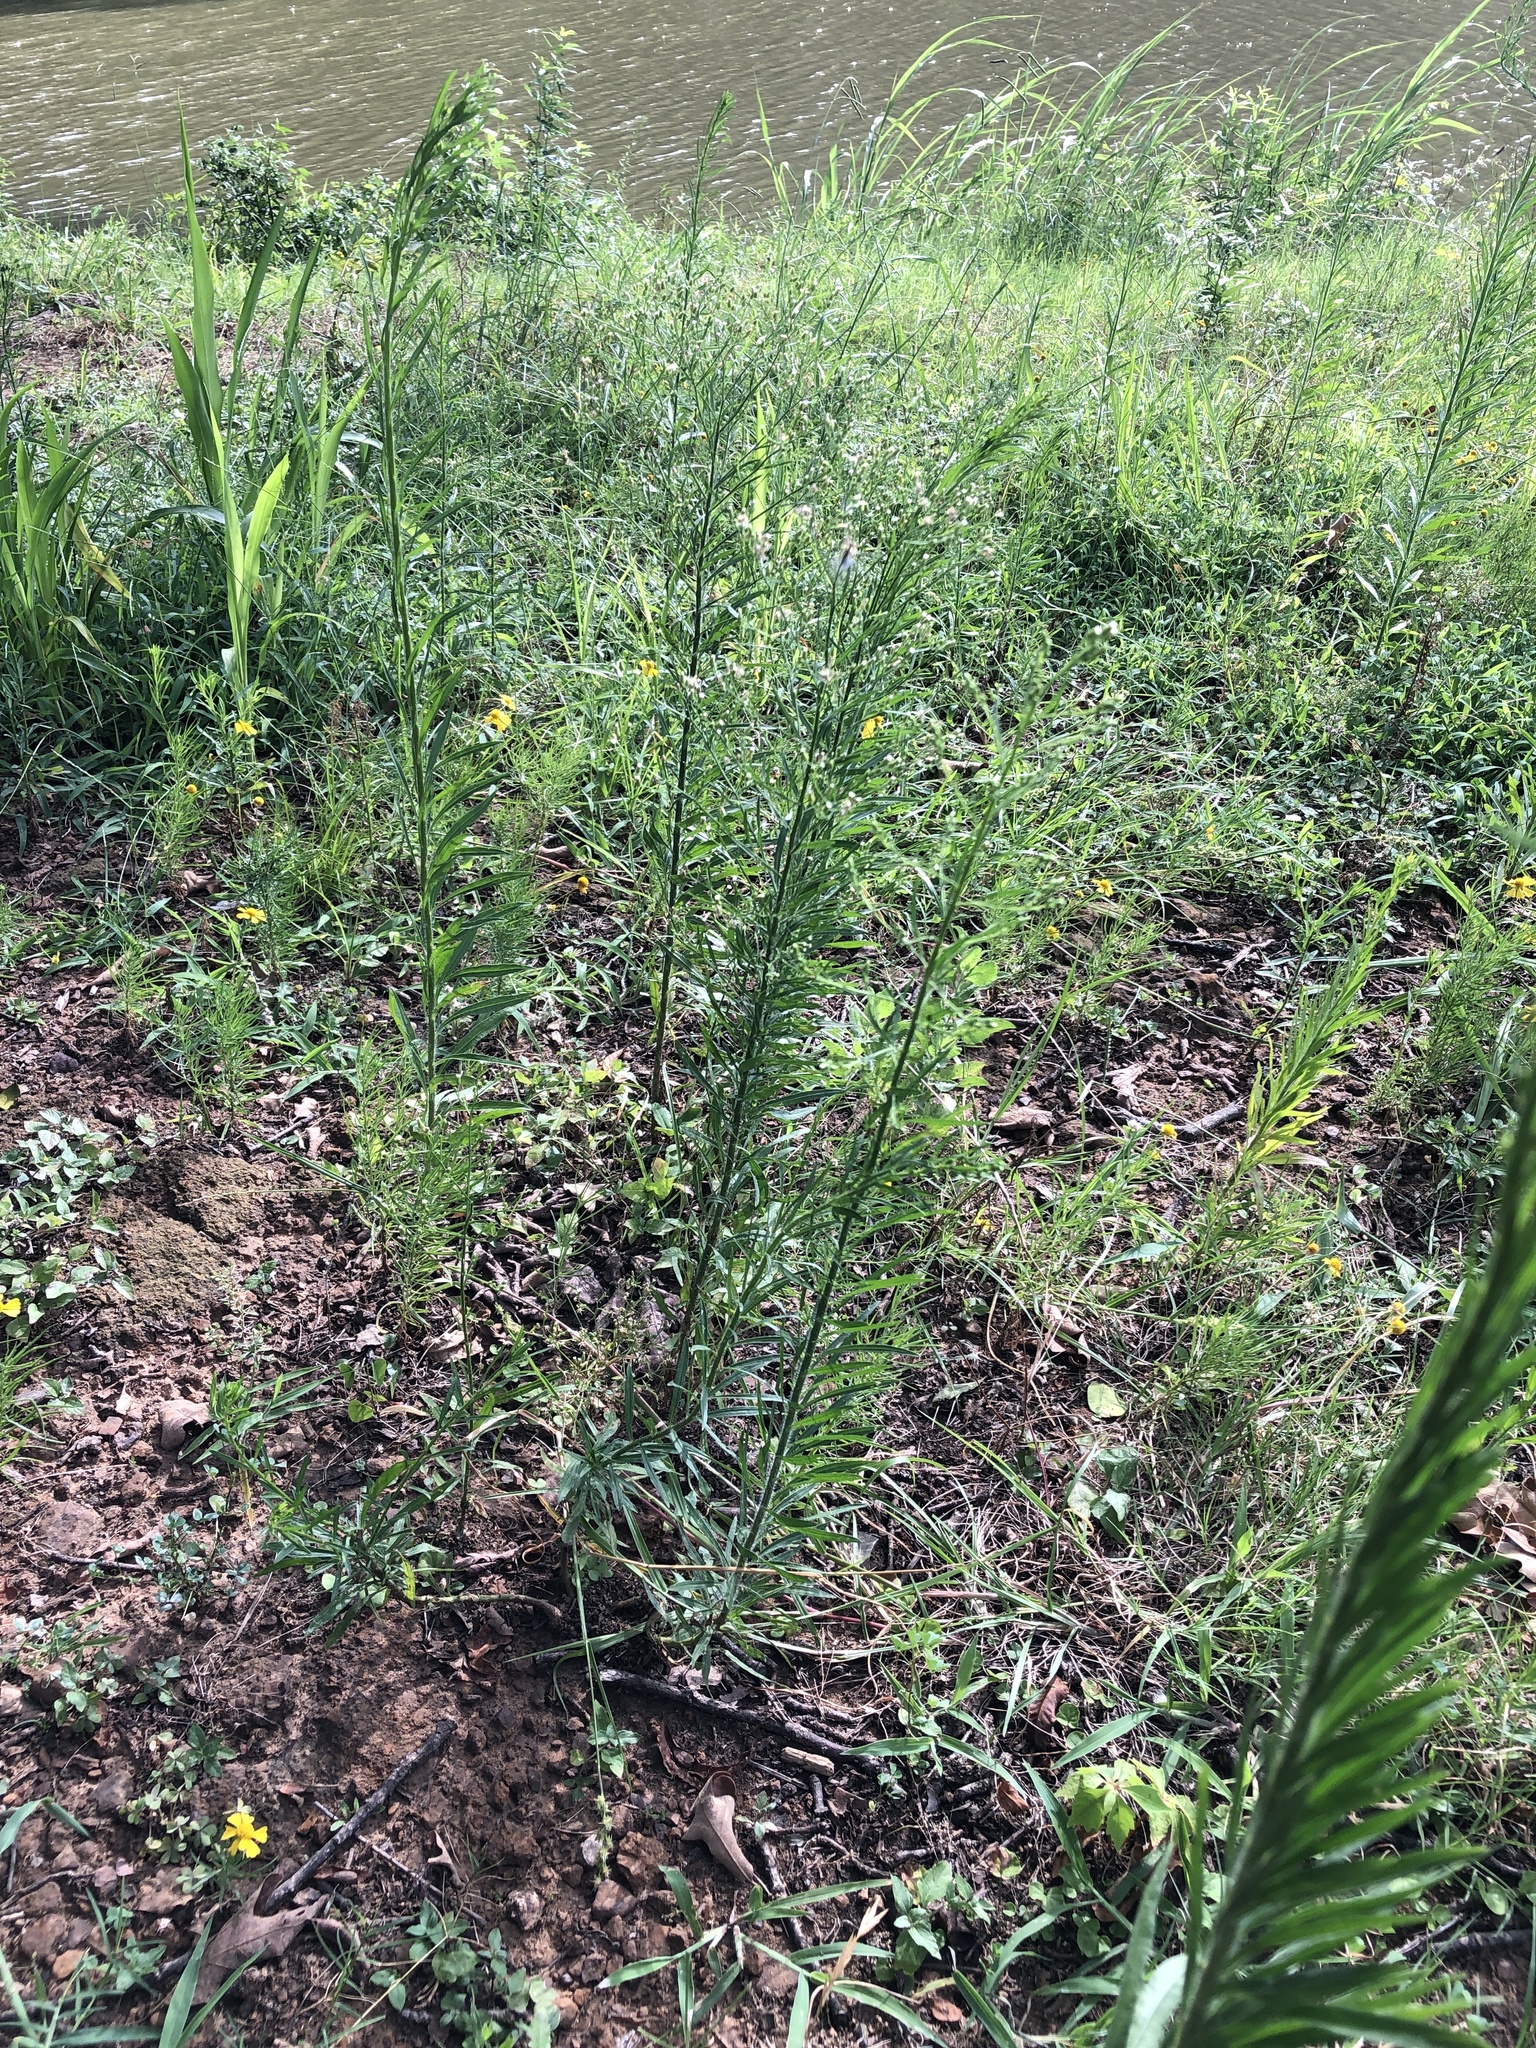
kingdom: Plantae
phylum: Tracheophyta
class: Magnoliopsida
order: Asterales
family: Asteraceae
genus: Erigeron
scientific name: Erigeron canadensis
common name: Canadian fleabane
